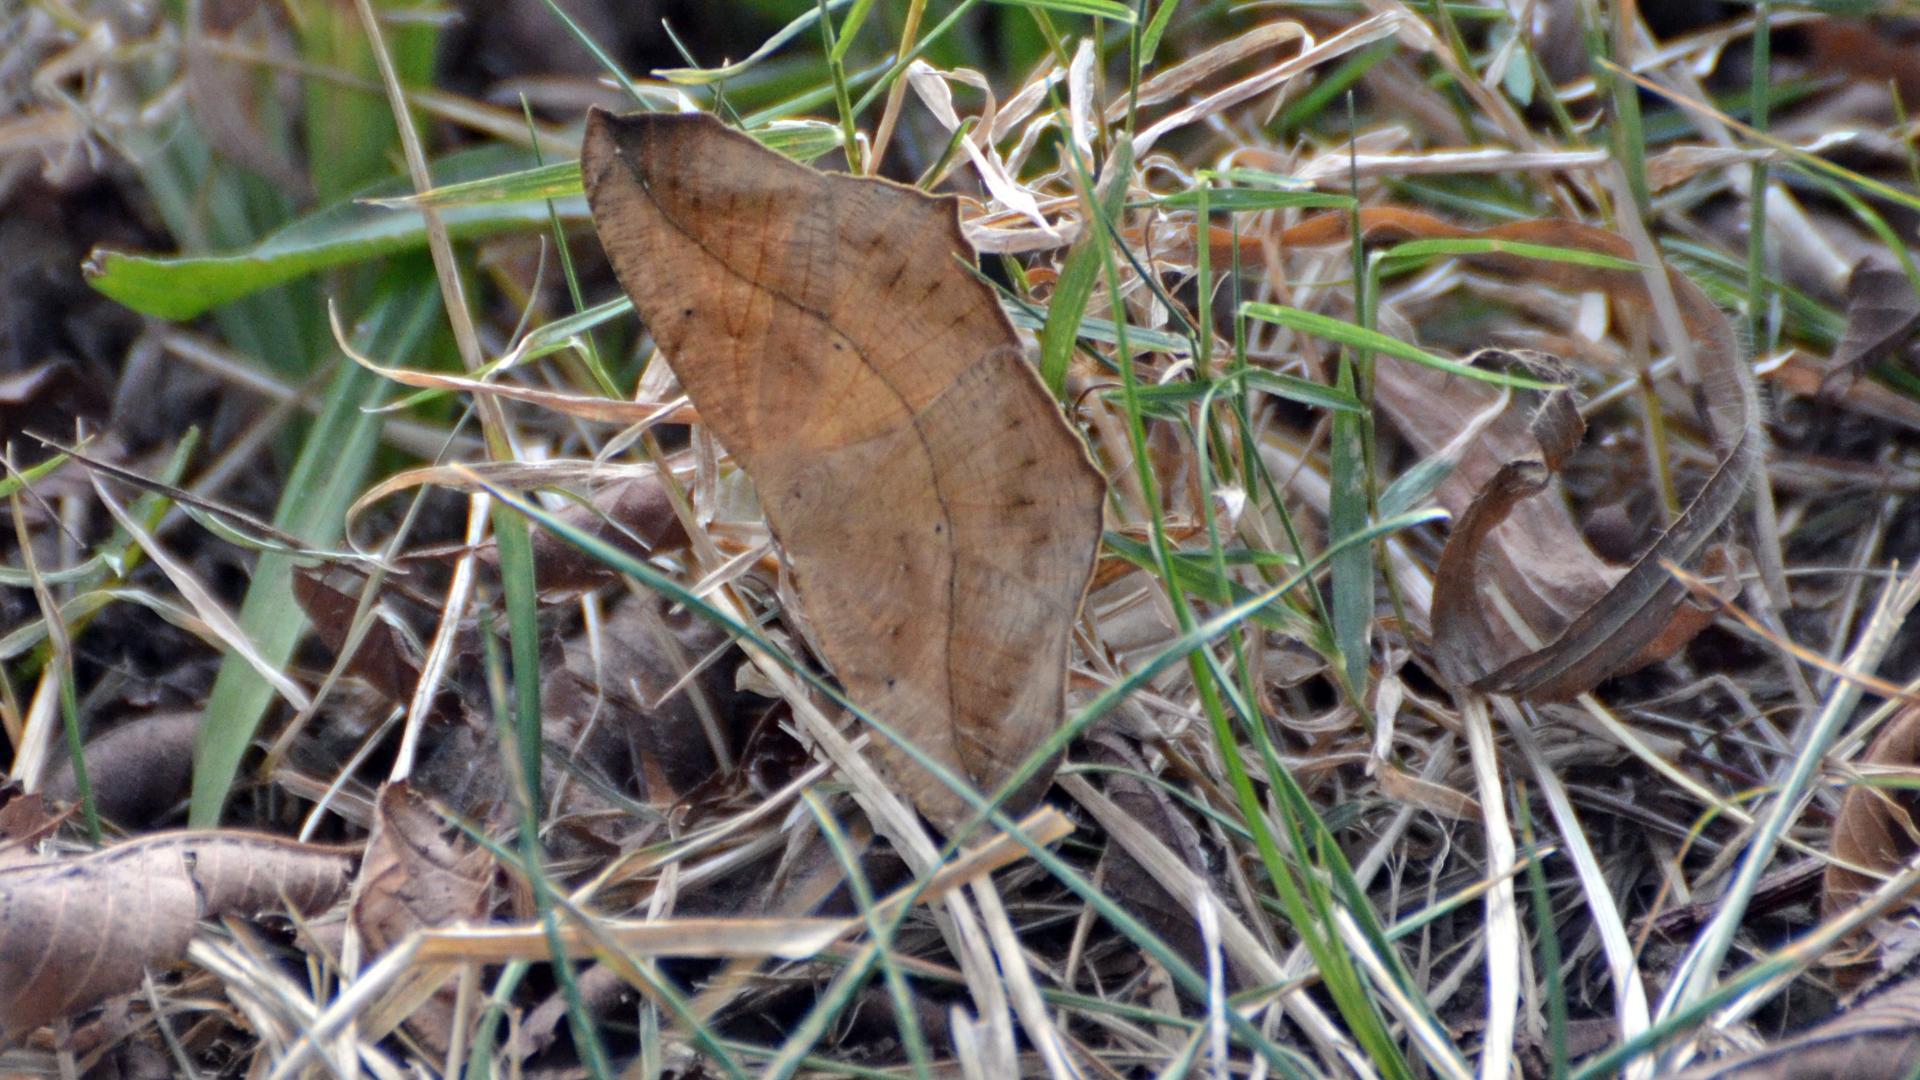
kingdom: Animalia
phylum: Arthropoda
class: Insecta
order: Lepidoptera
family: Geometridae
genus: Prochoerodes
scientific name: Prochoerodes lineola
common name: Large maple spanworm
